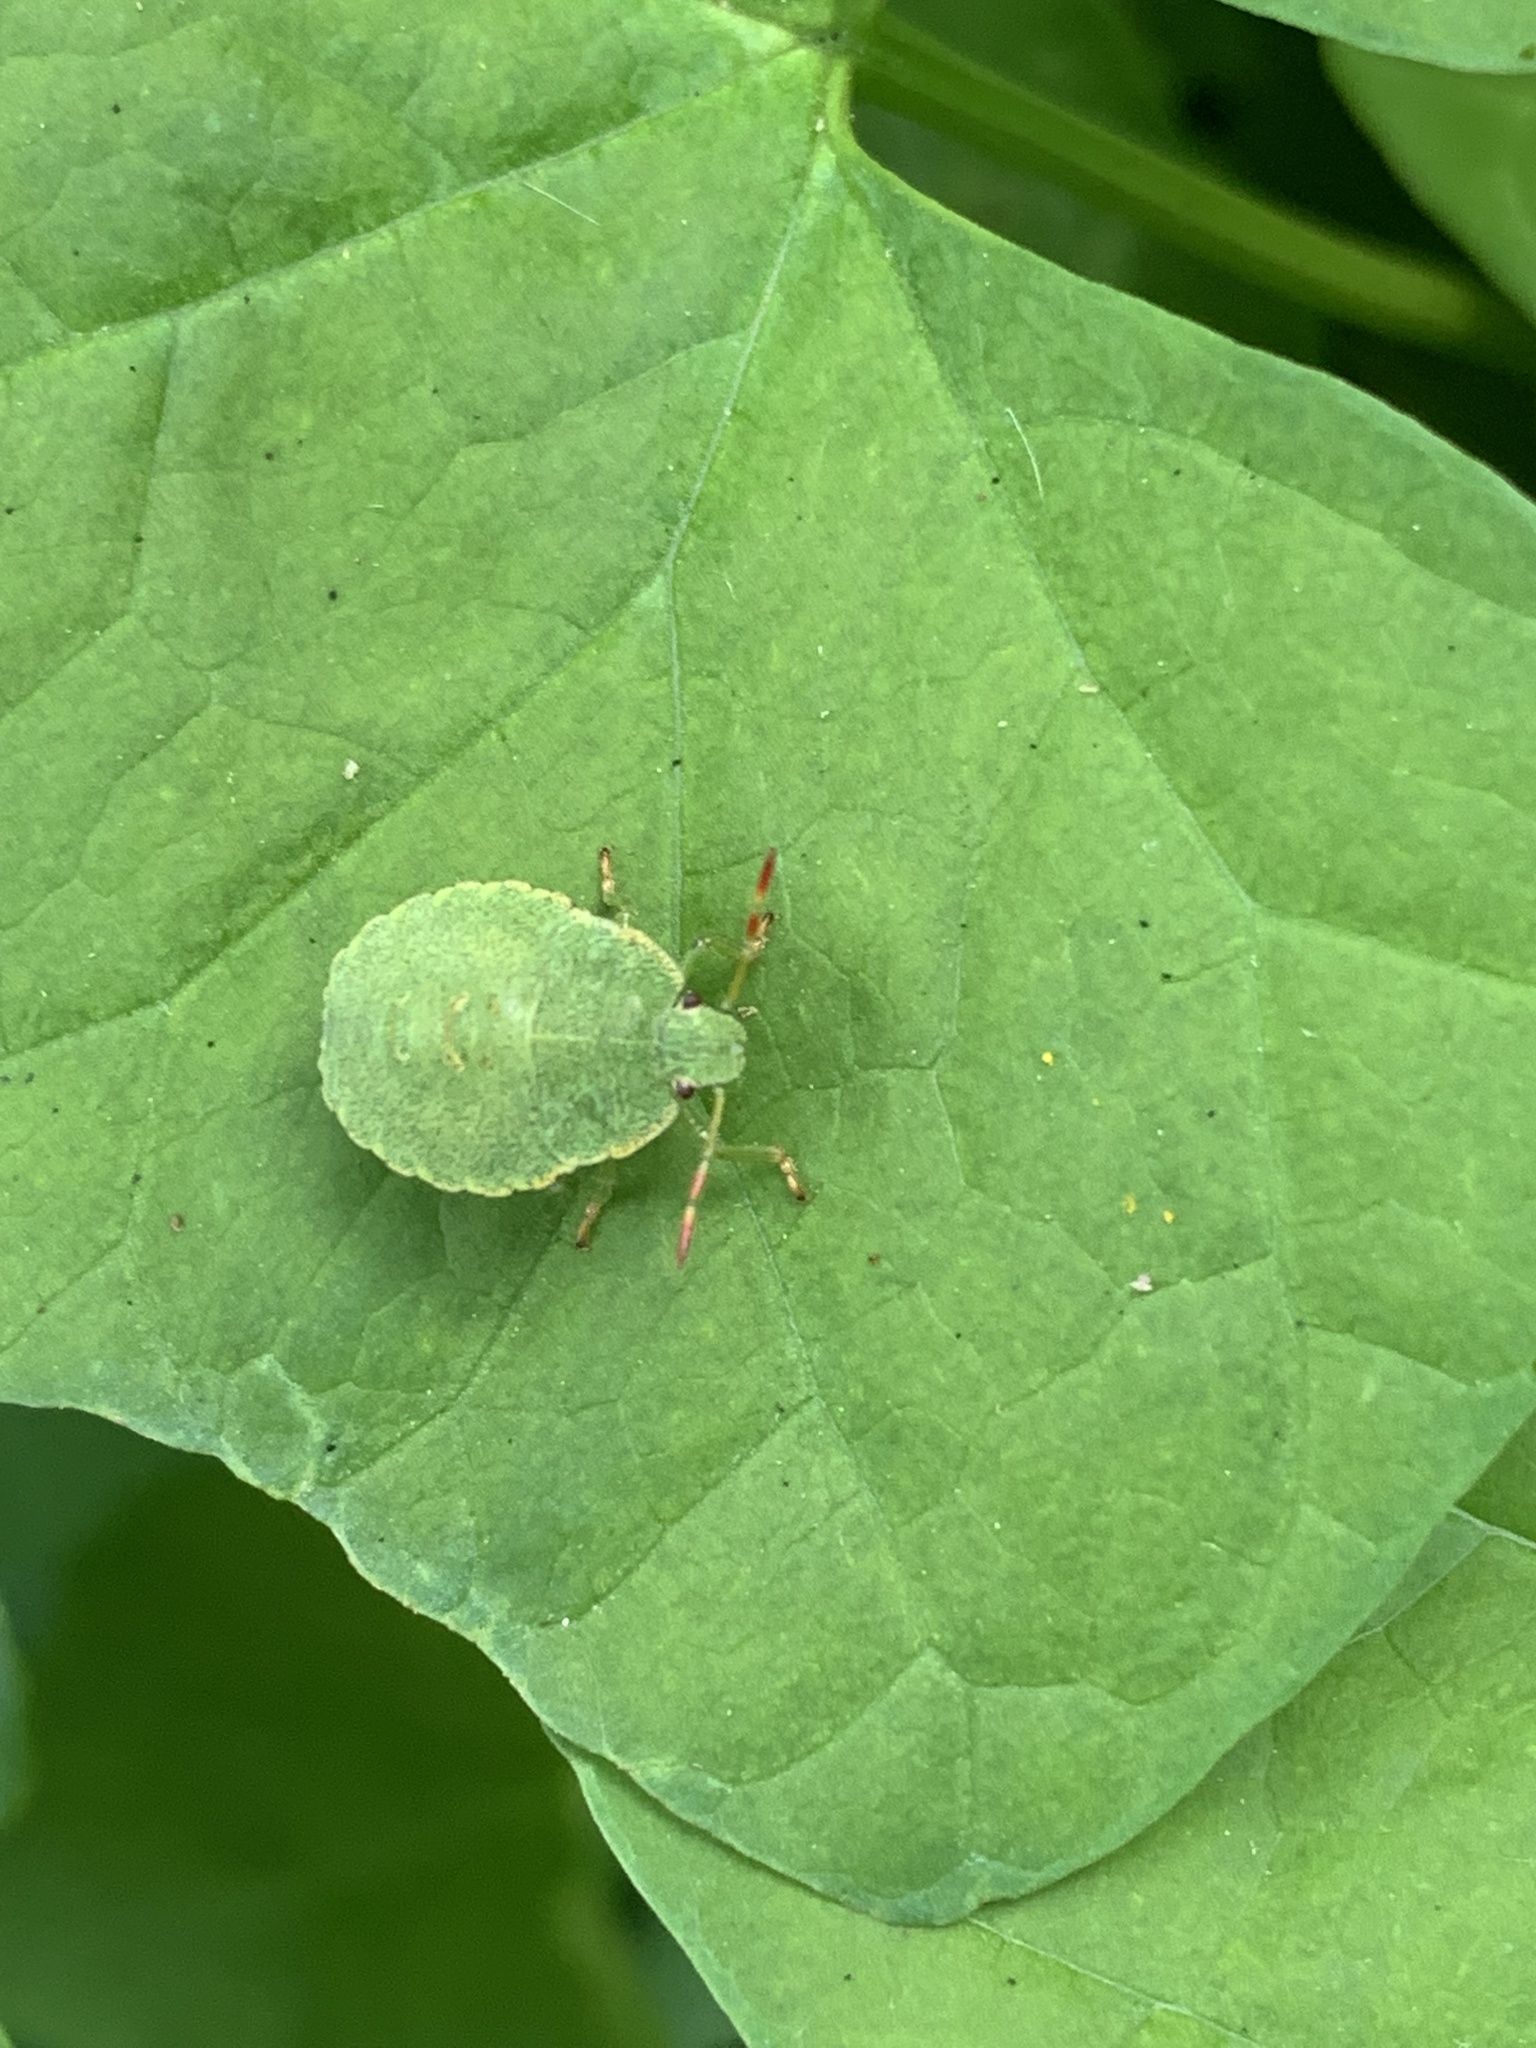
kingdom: Animalia
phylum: Arthropoda
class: Insecta
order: Hemiptera
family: Pentatomidae
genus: Palomena
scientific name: Palomena prasina
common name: Green shieldbug
